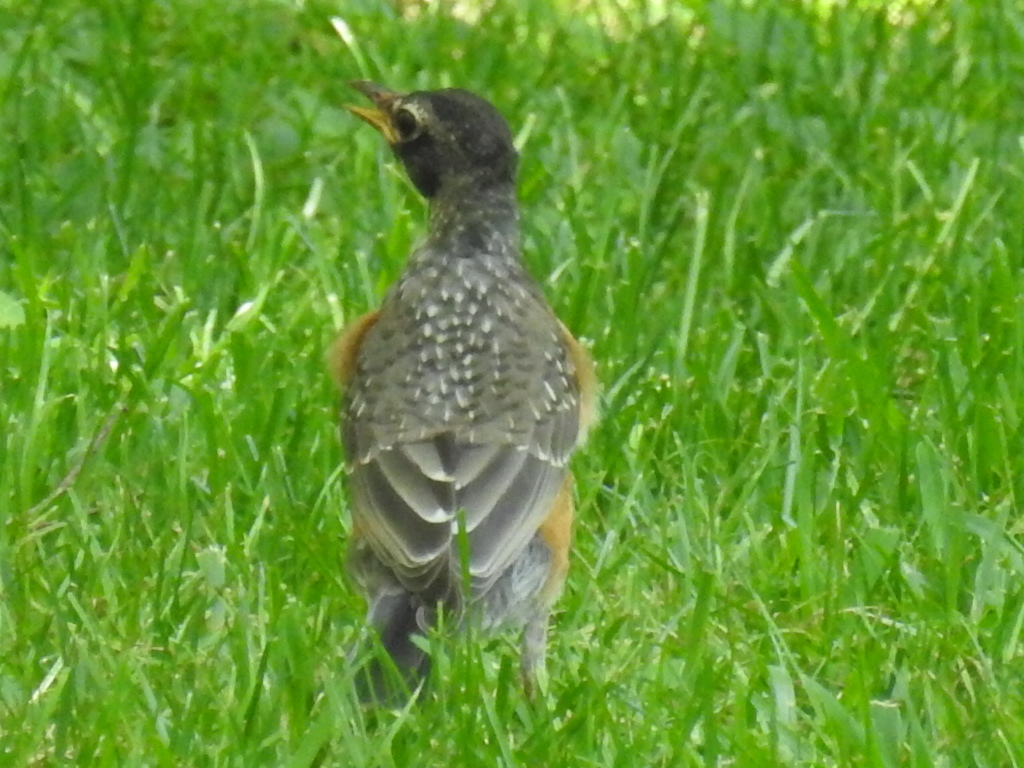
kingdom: Animalia
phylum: Chordata
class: Aves
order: Passeriformes
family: Turdidae
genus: Turdus
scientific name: Turdus migratorius
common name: American robin
